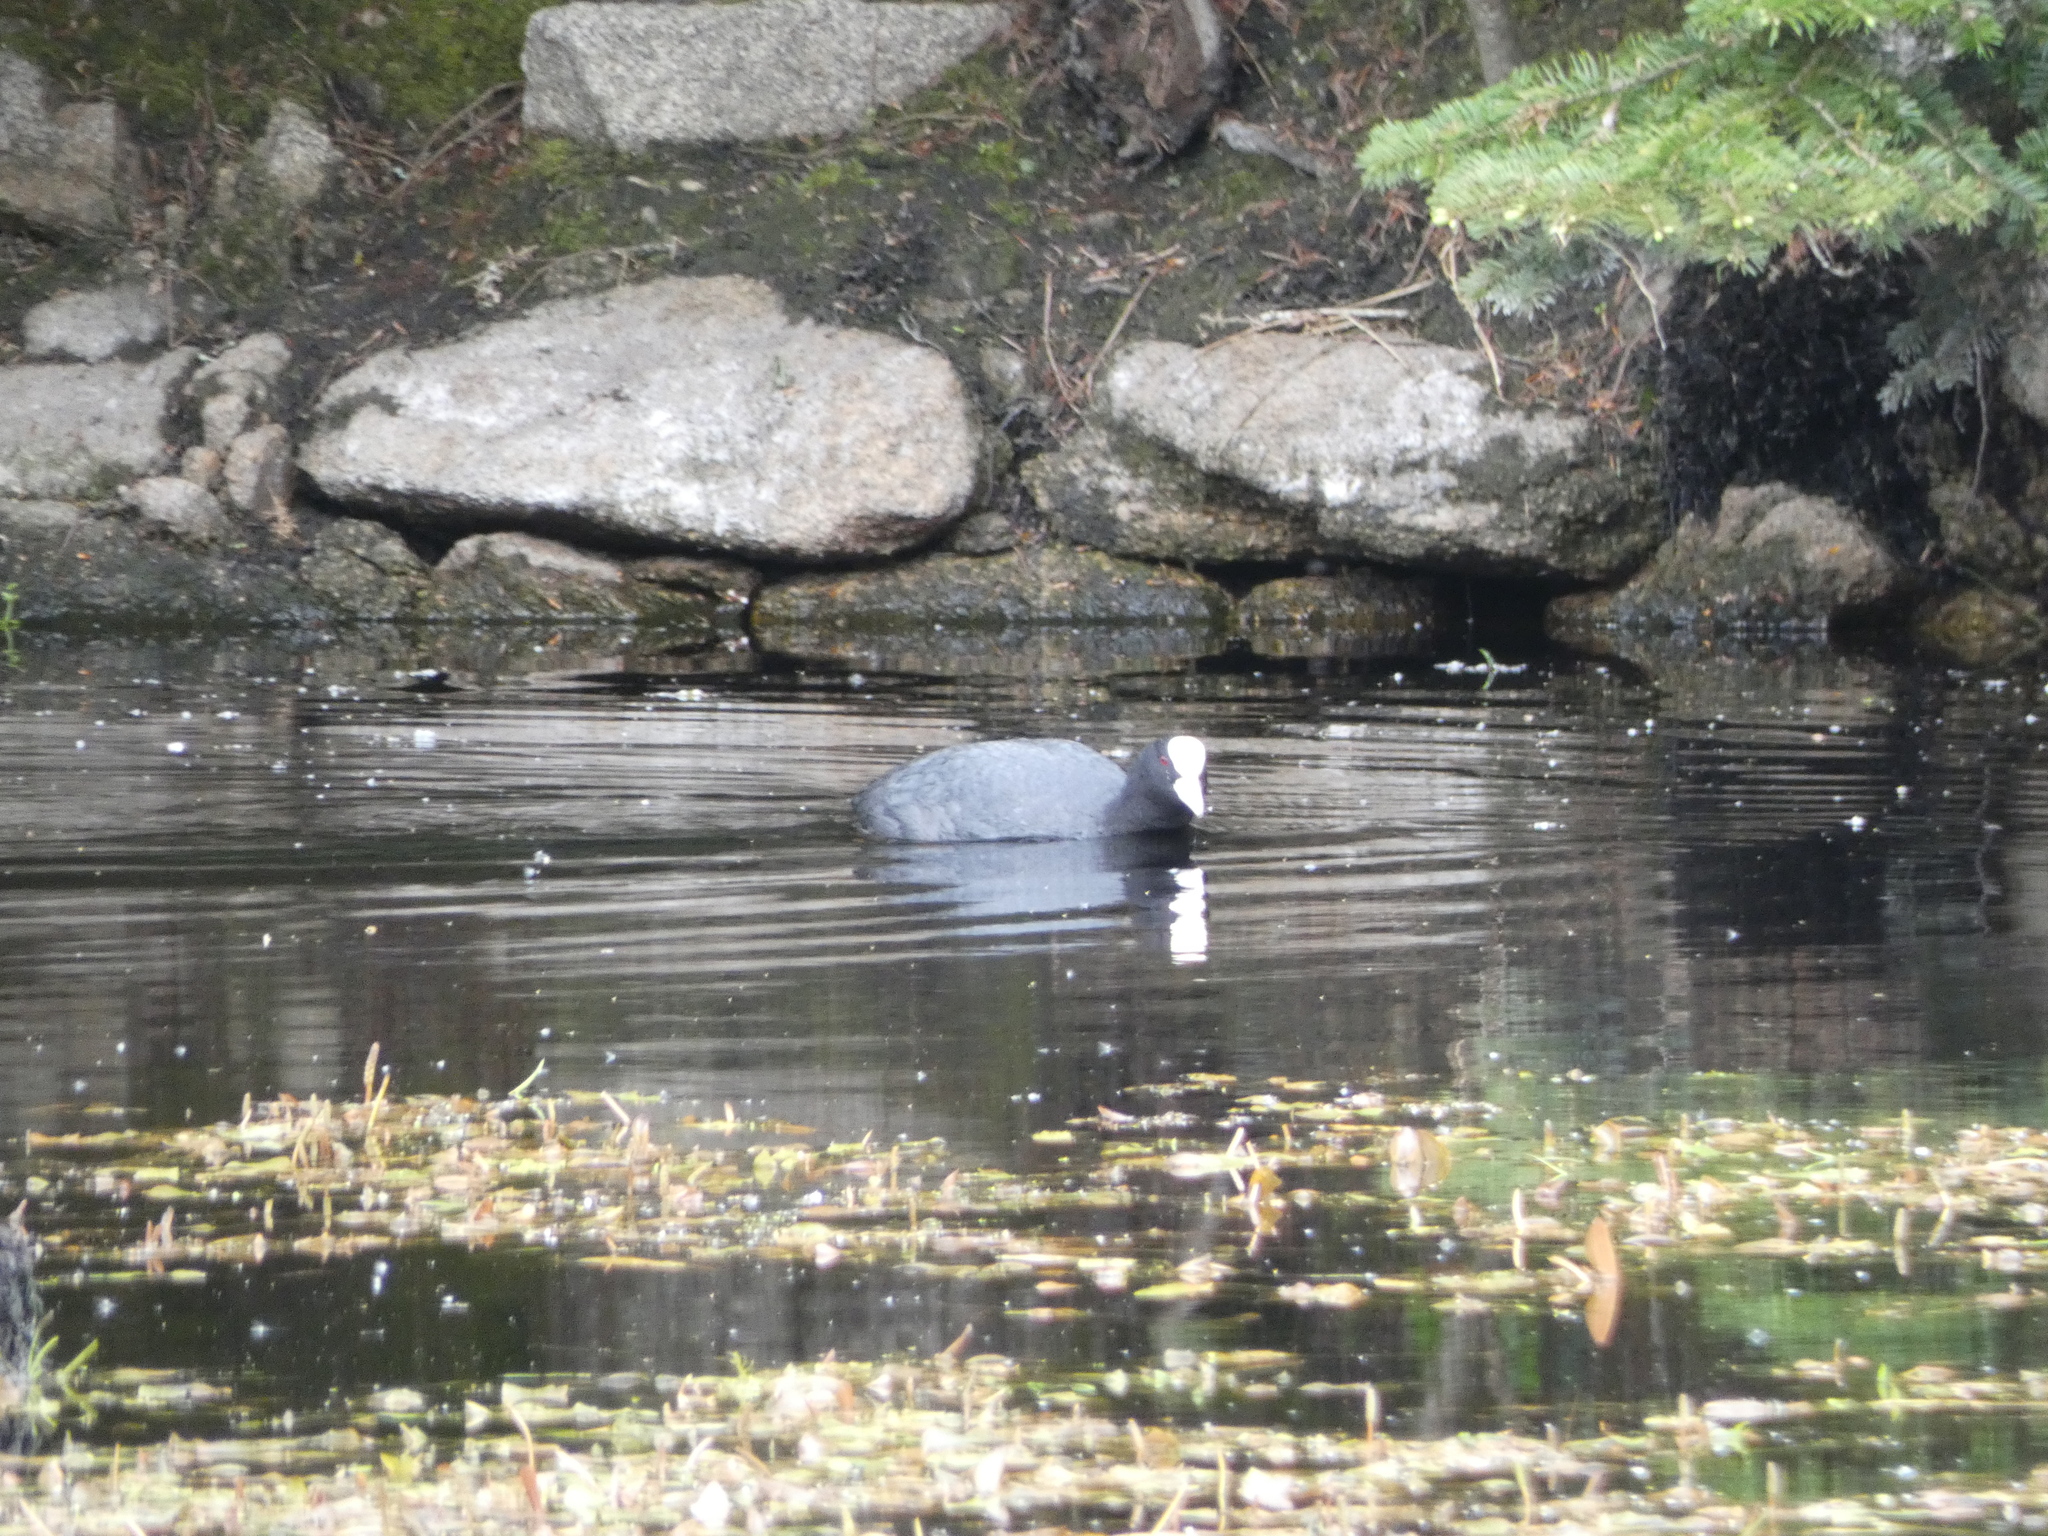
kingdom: Animalia
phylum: Chordata
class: Aves
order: Gruiformes
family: Rallidae
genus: Fulica
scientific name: Fulica atra
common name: Eurasian coot
